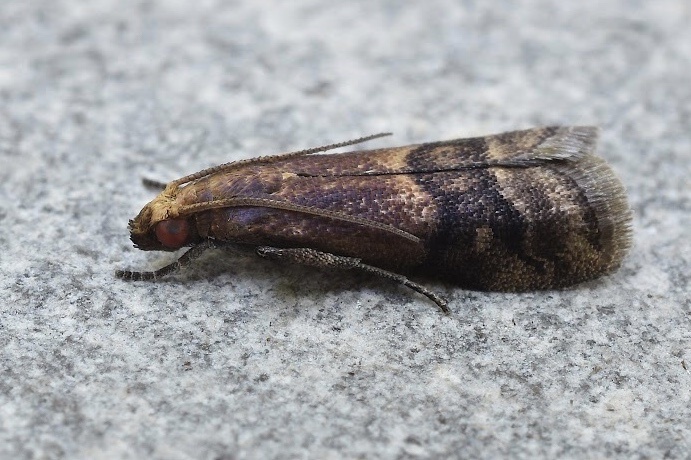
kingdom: Animalia
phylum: Arthropoda
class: Insecta
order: Lepidoptera
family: Pyralidae
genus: Eulogia
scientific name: Eulogia ochrifrontella
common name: Broad-banded eulogia moth
